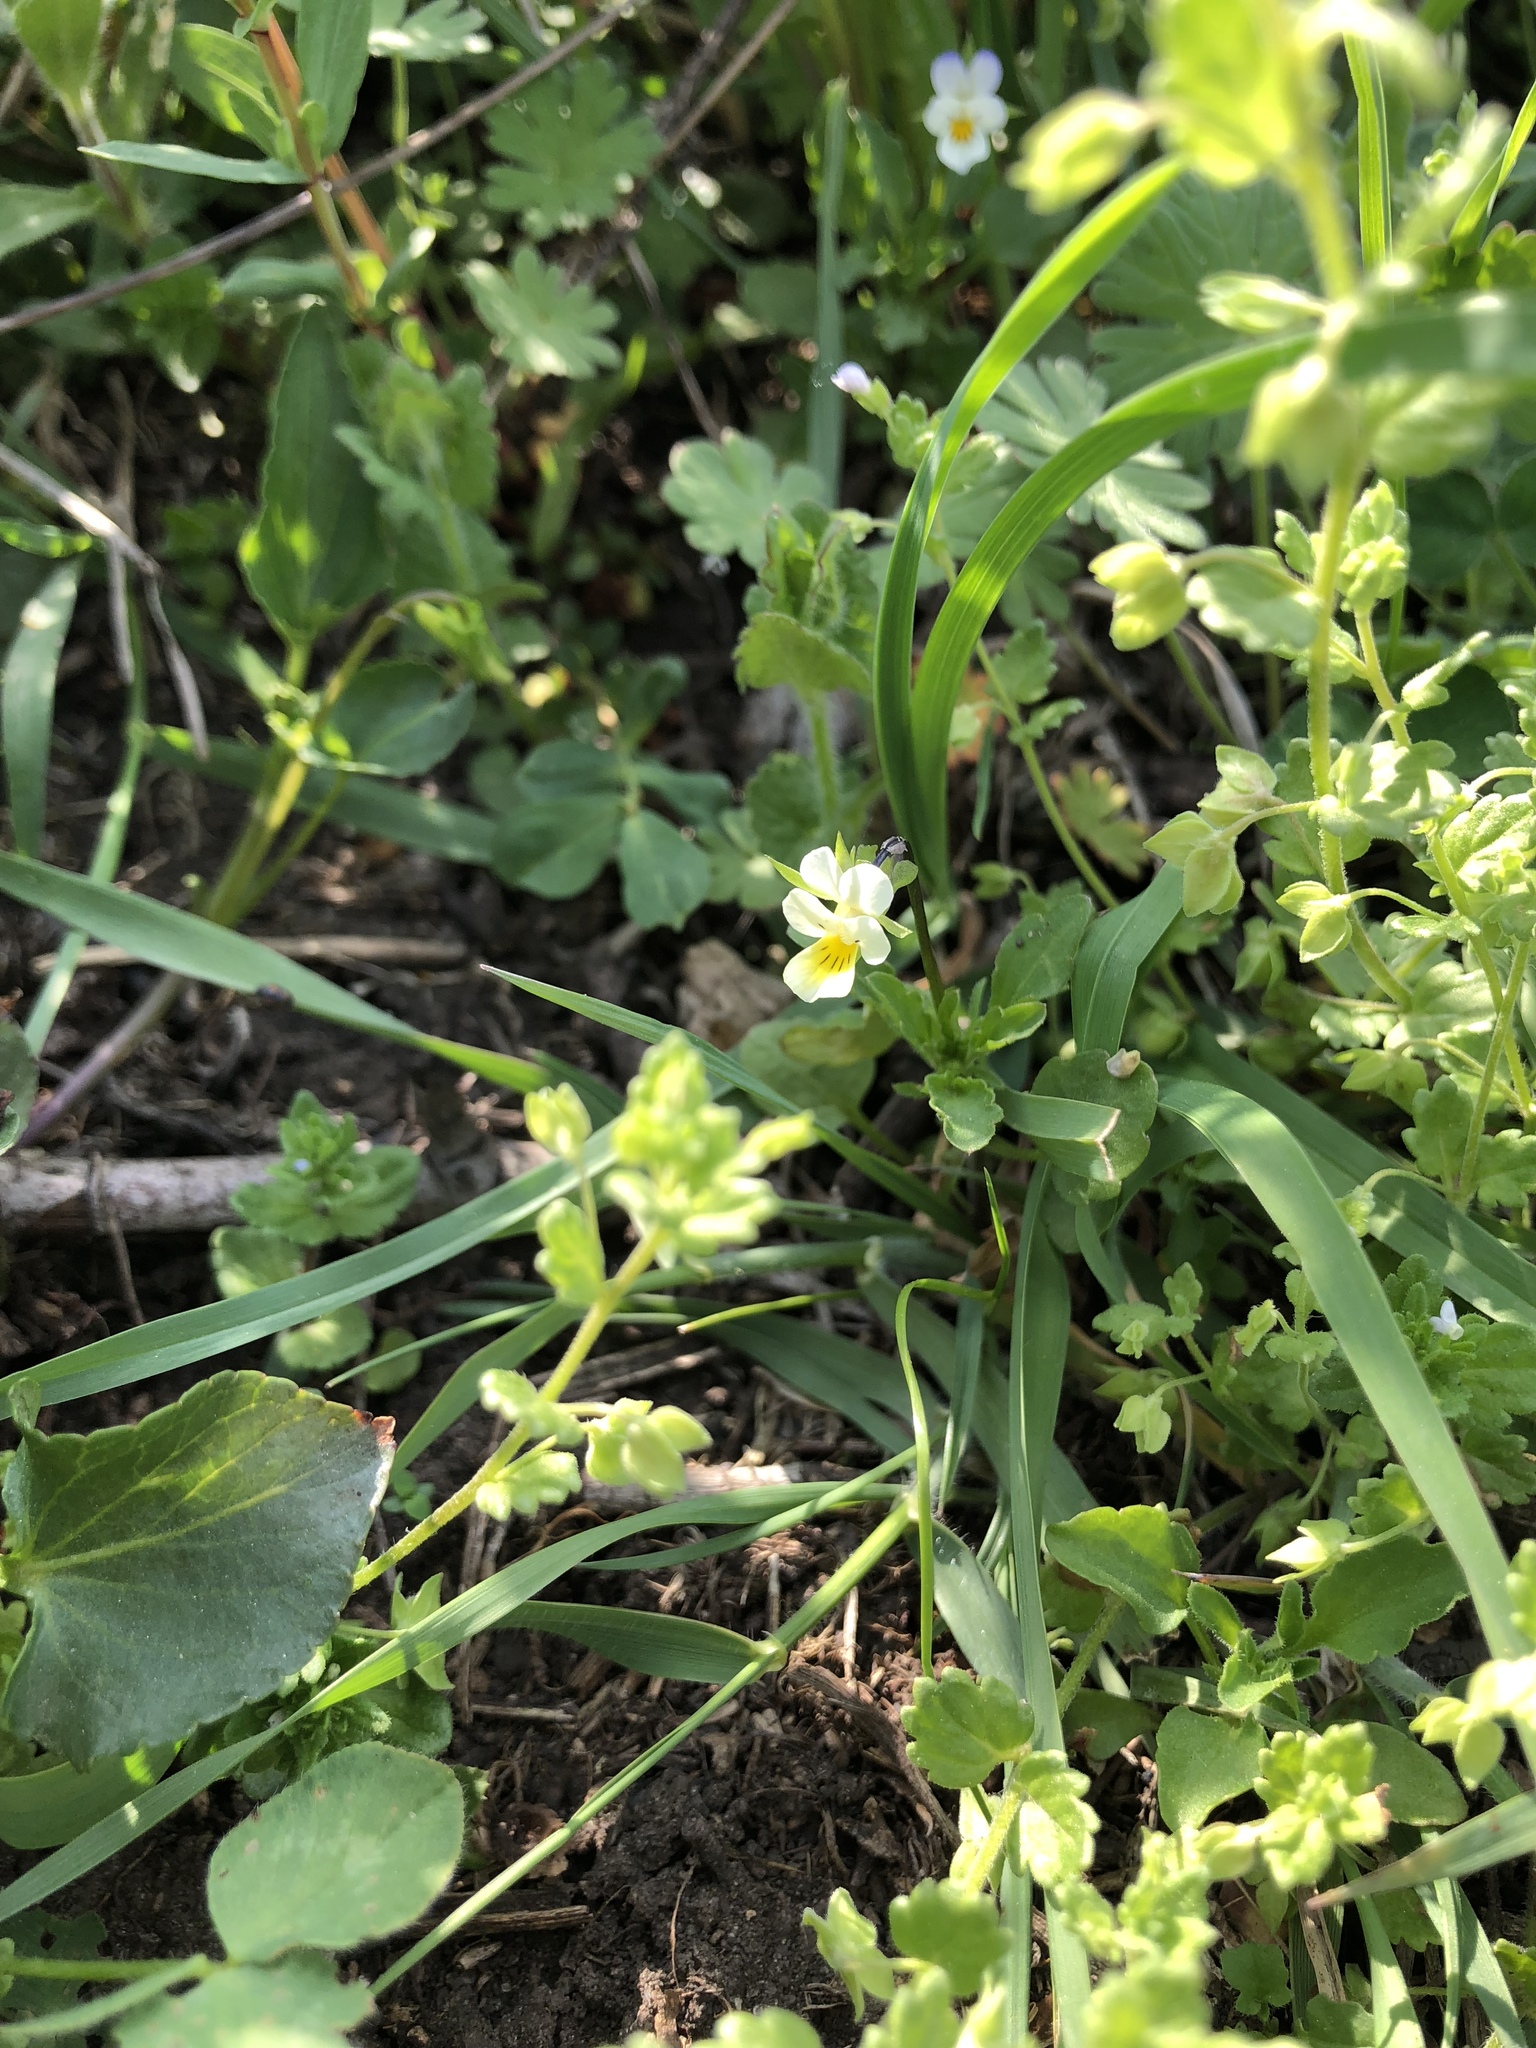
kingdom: Plantae
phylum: Tracheophyta
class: Magnoliopsida
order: Malpighiales
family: Violaceae
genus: Viola
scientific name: Viola arvensis
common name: Field pansy
